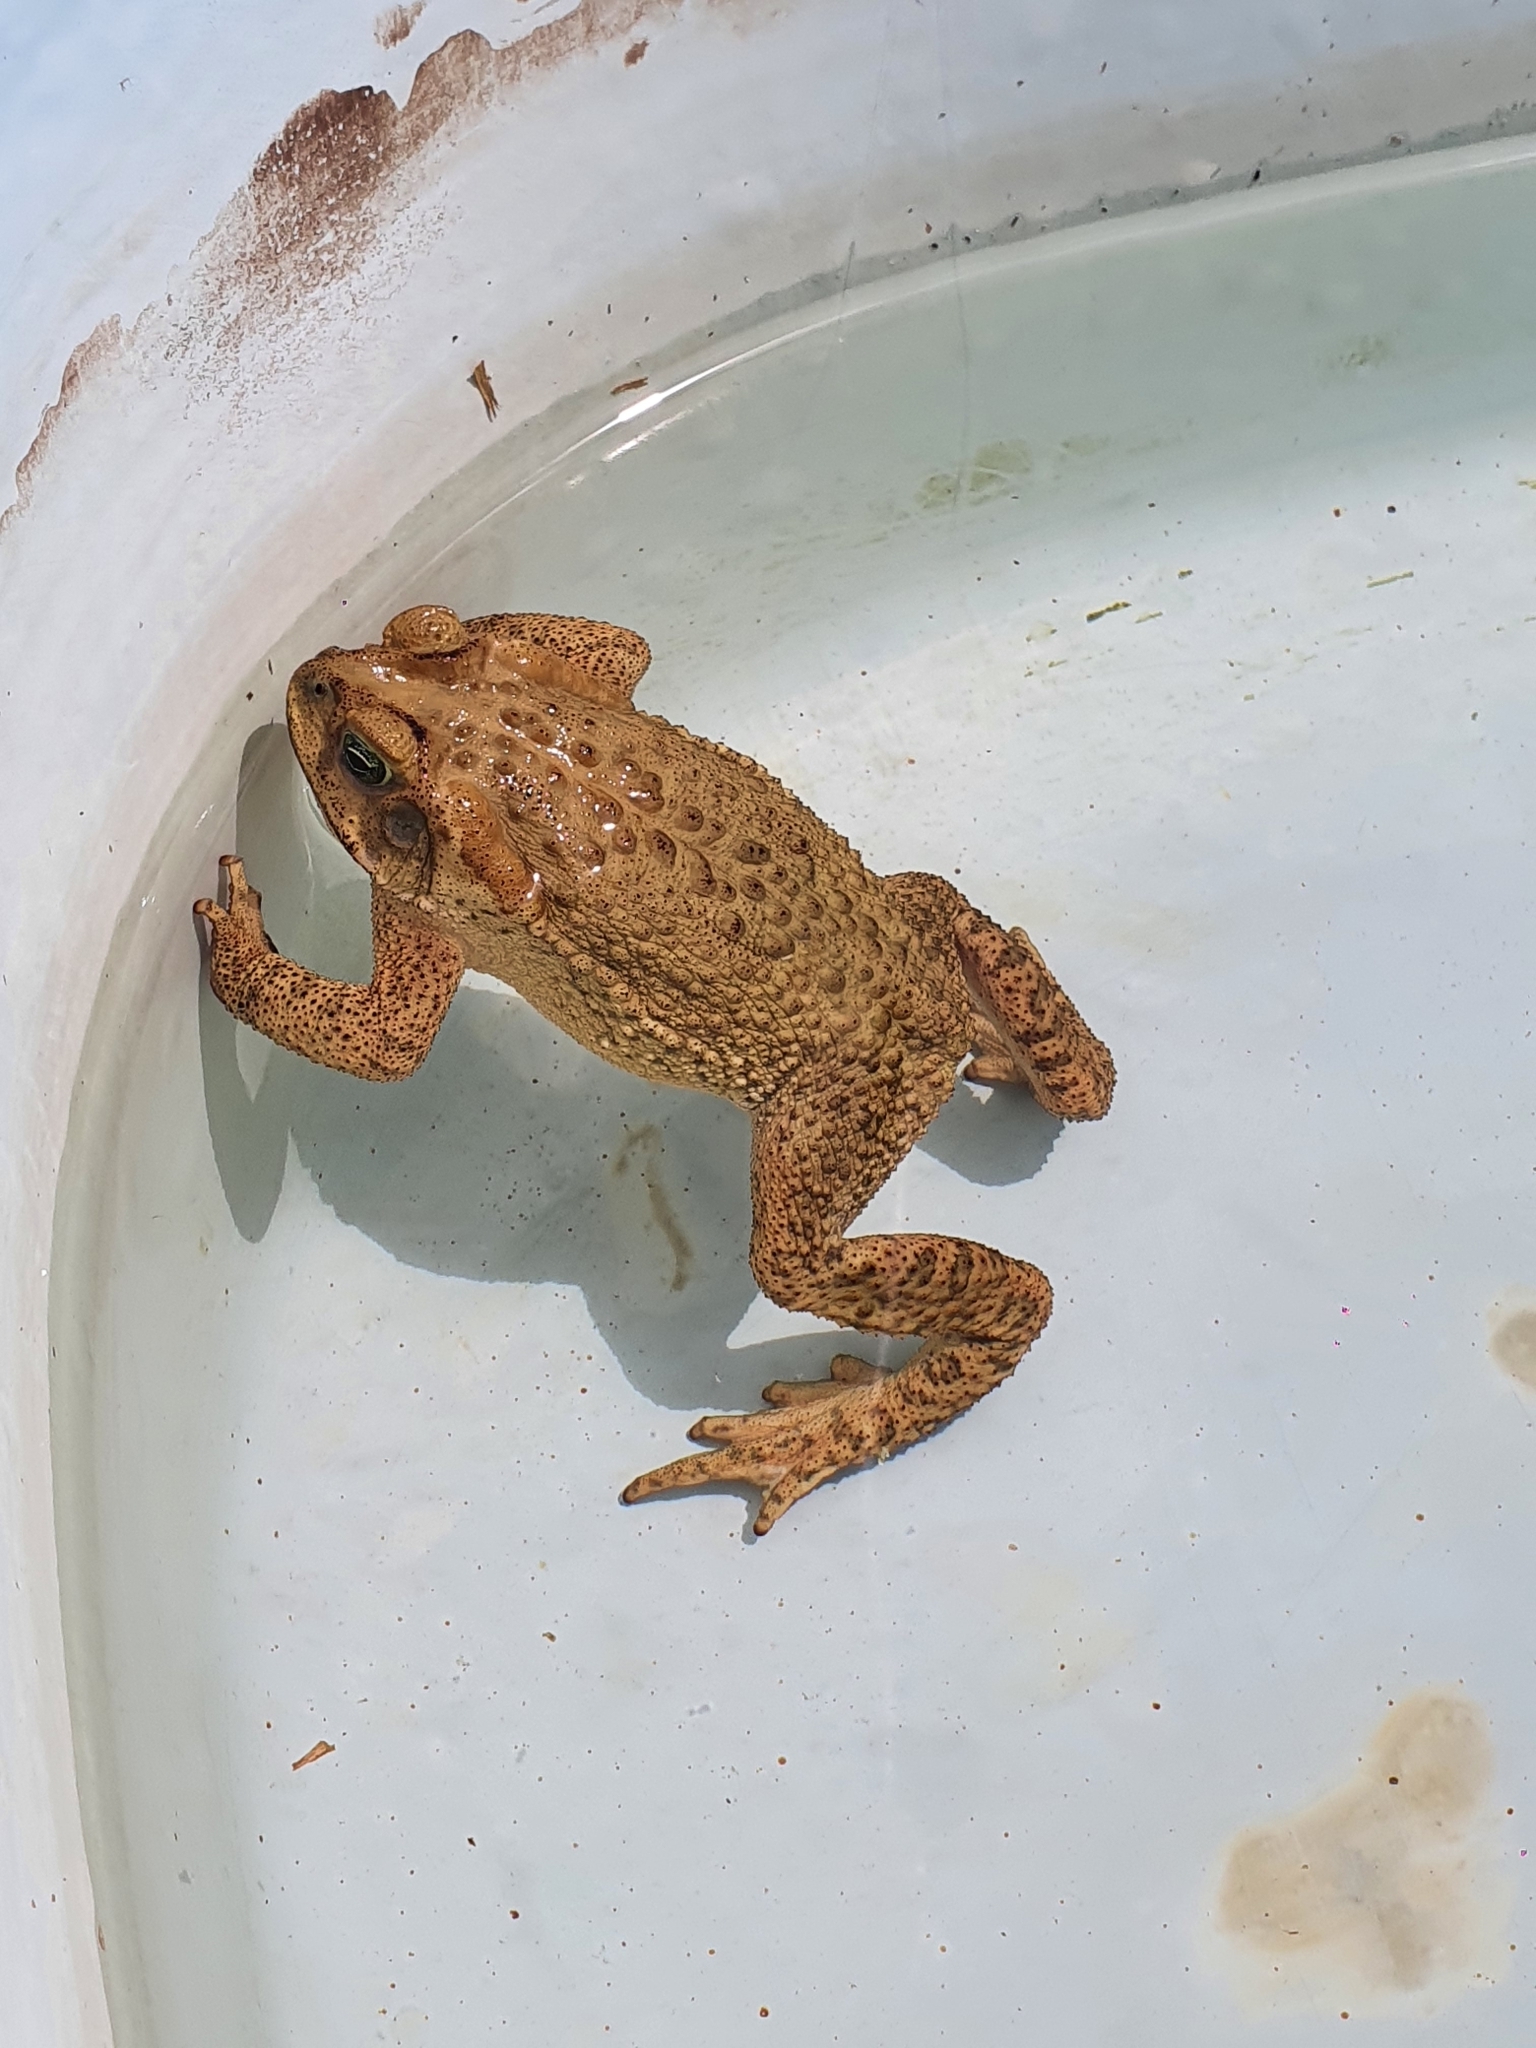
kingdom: Animalia
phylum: Chordata
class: Amphibia
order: Anura
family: Bufonidae
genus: Rhinella
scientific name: Rhinella rubescens
